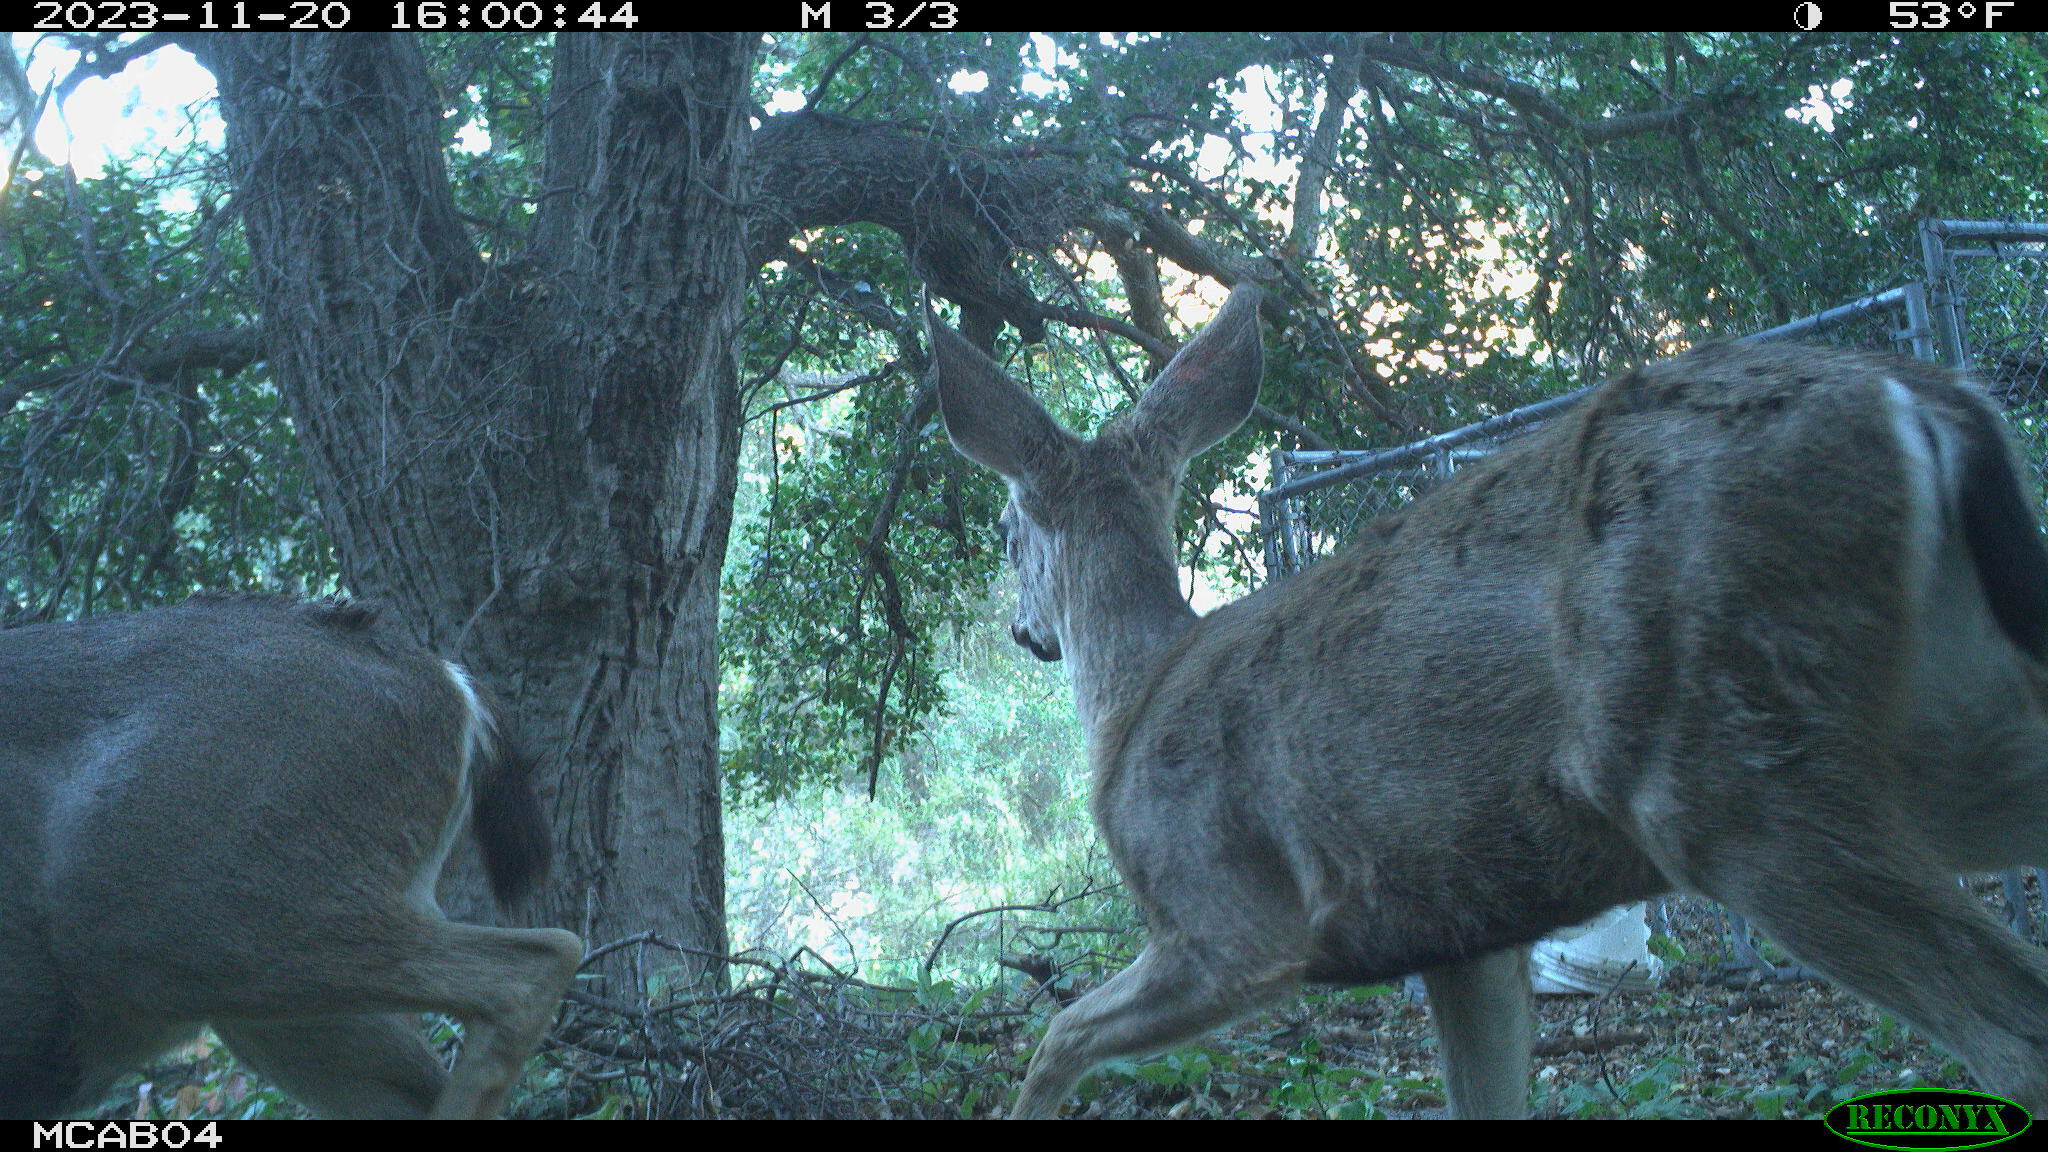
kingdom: Animalia
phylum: Chordata
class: Mammalia
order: Artiodactyla
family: Cervidae
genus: Odocoileus
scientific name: Odocoileus hemionus
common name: Mule deer
